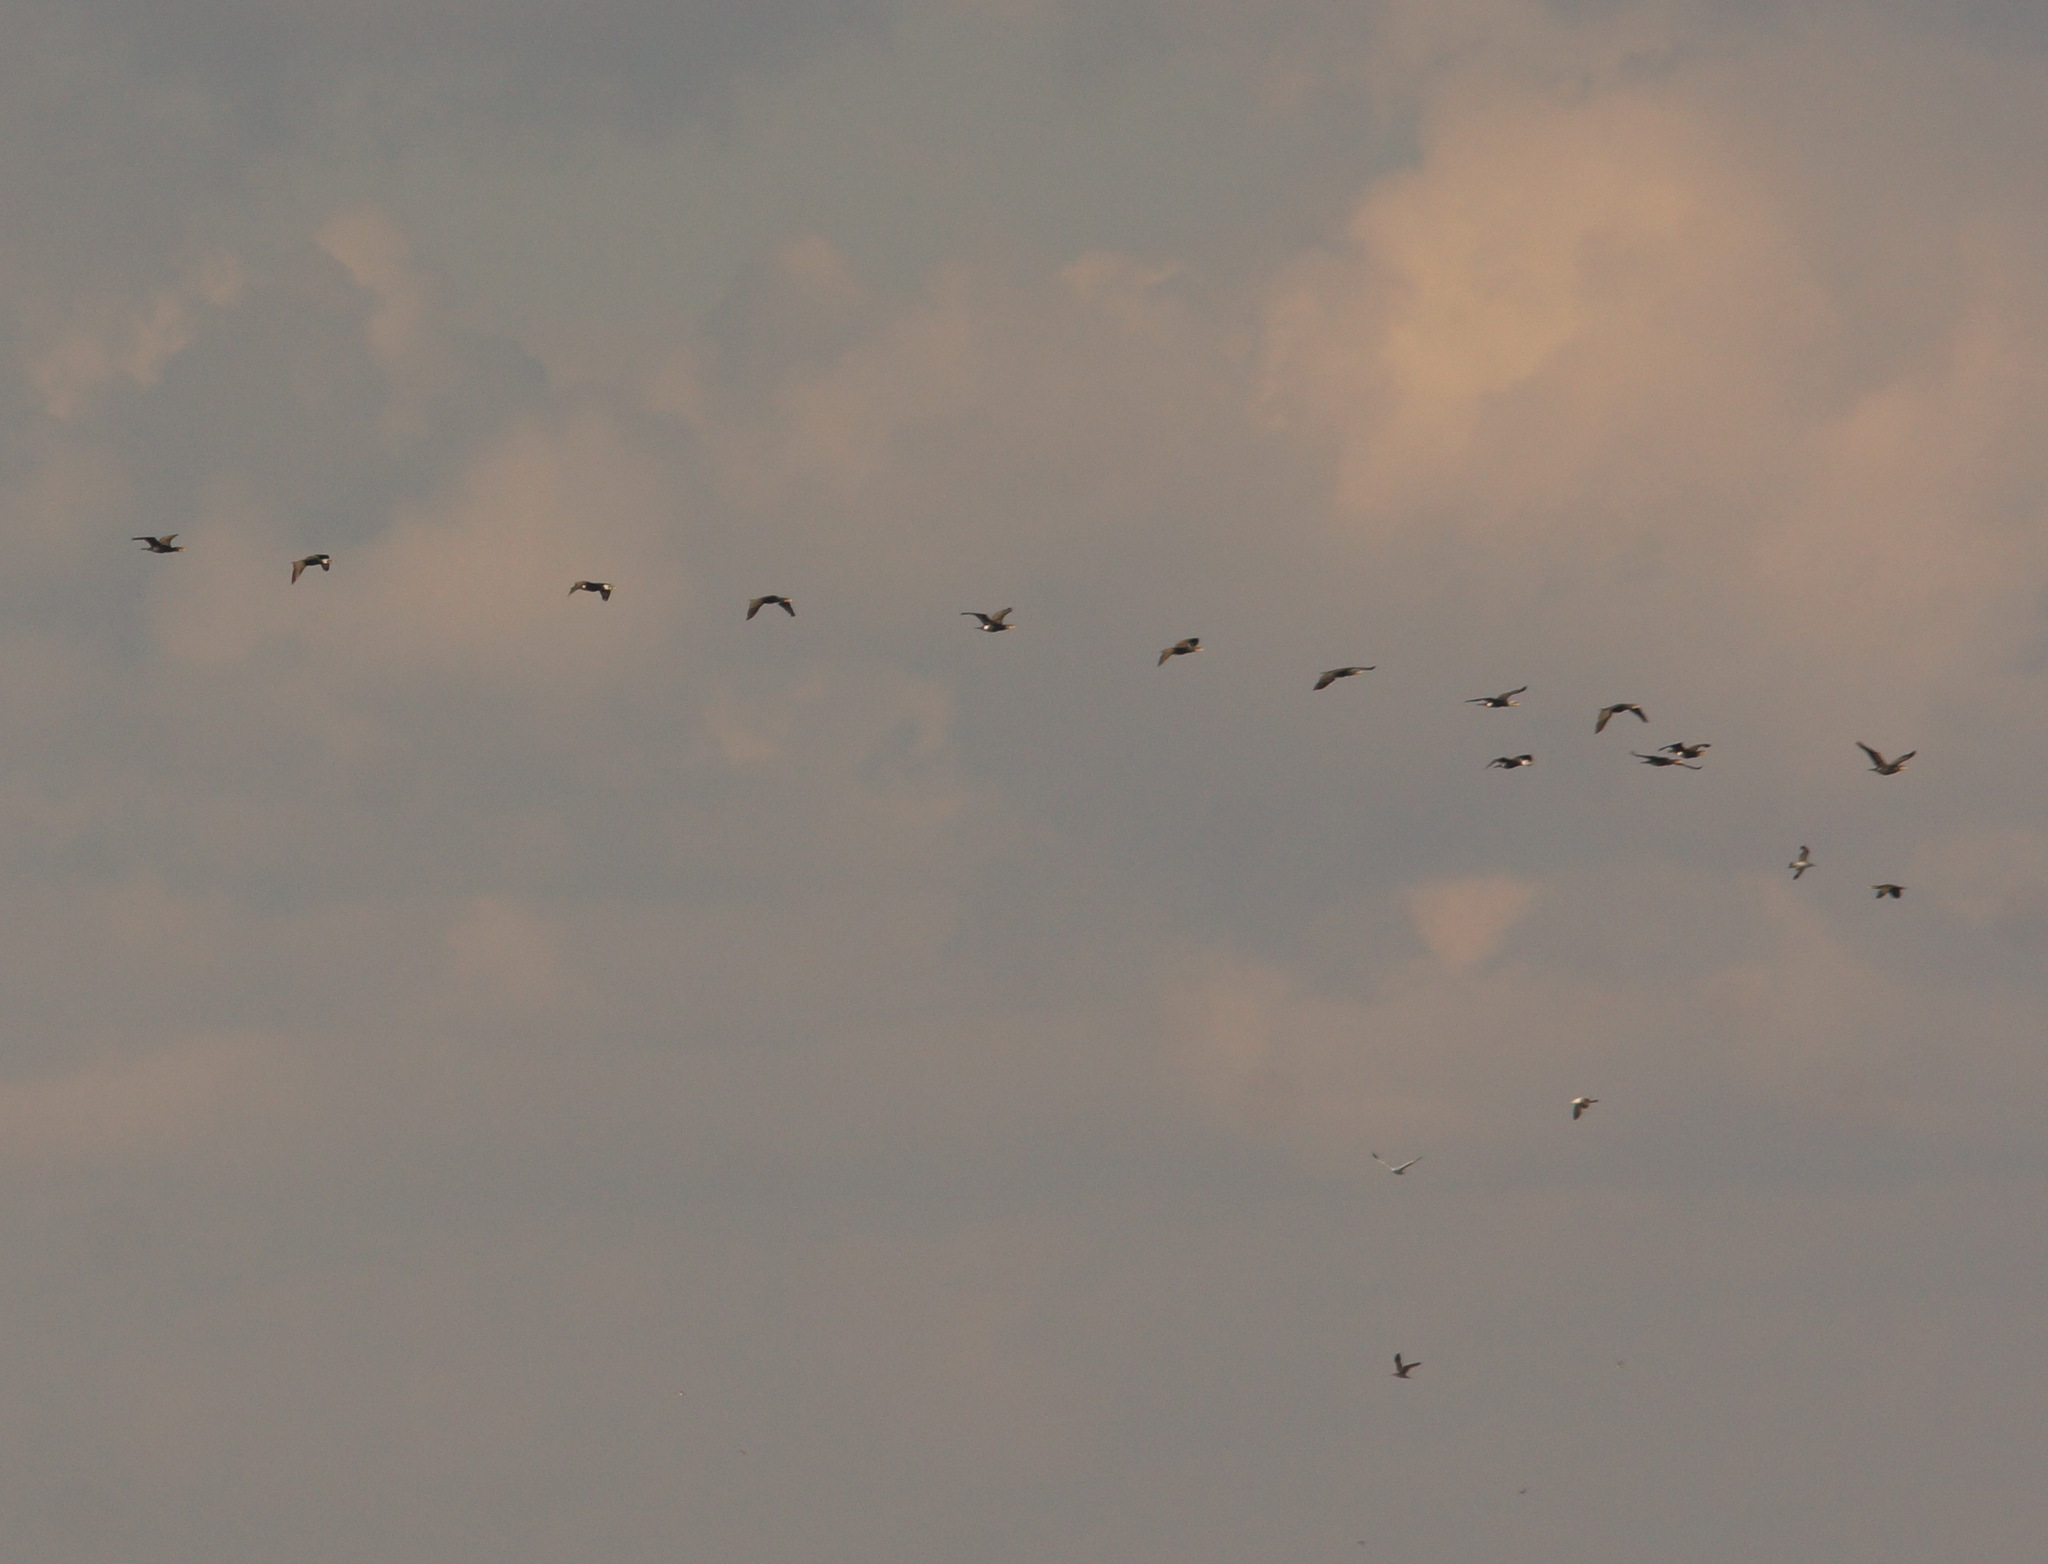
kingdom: Animalia
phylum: Chordata
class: Aves
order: Suliformes
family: Phalacrocoracidae
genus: Phalacrocorax
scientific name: Phalacrocorax carbo
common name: Great cormorant
